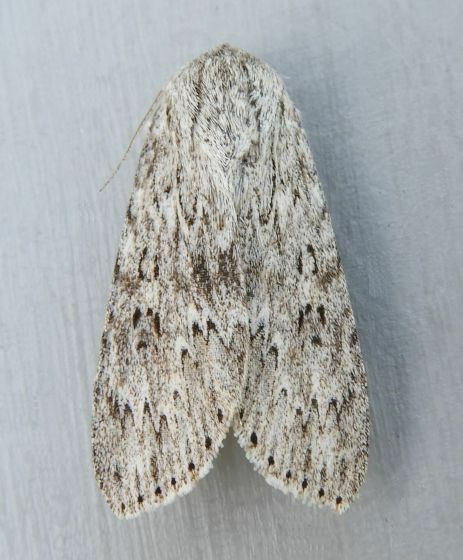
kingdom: Animalia
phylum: Arthropoda
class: Insecta
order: Lepidoptera
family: Noctuidae
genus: Acronicta
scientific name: Acronicta oblinita
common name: Smeared dagger
